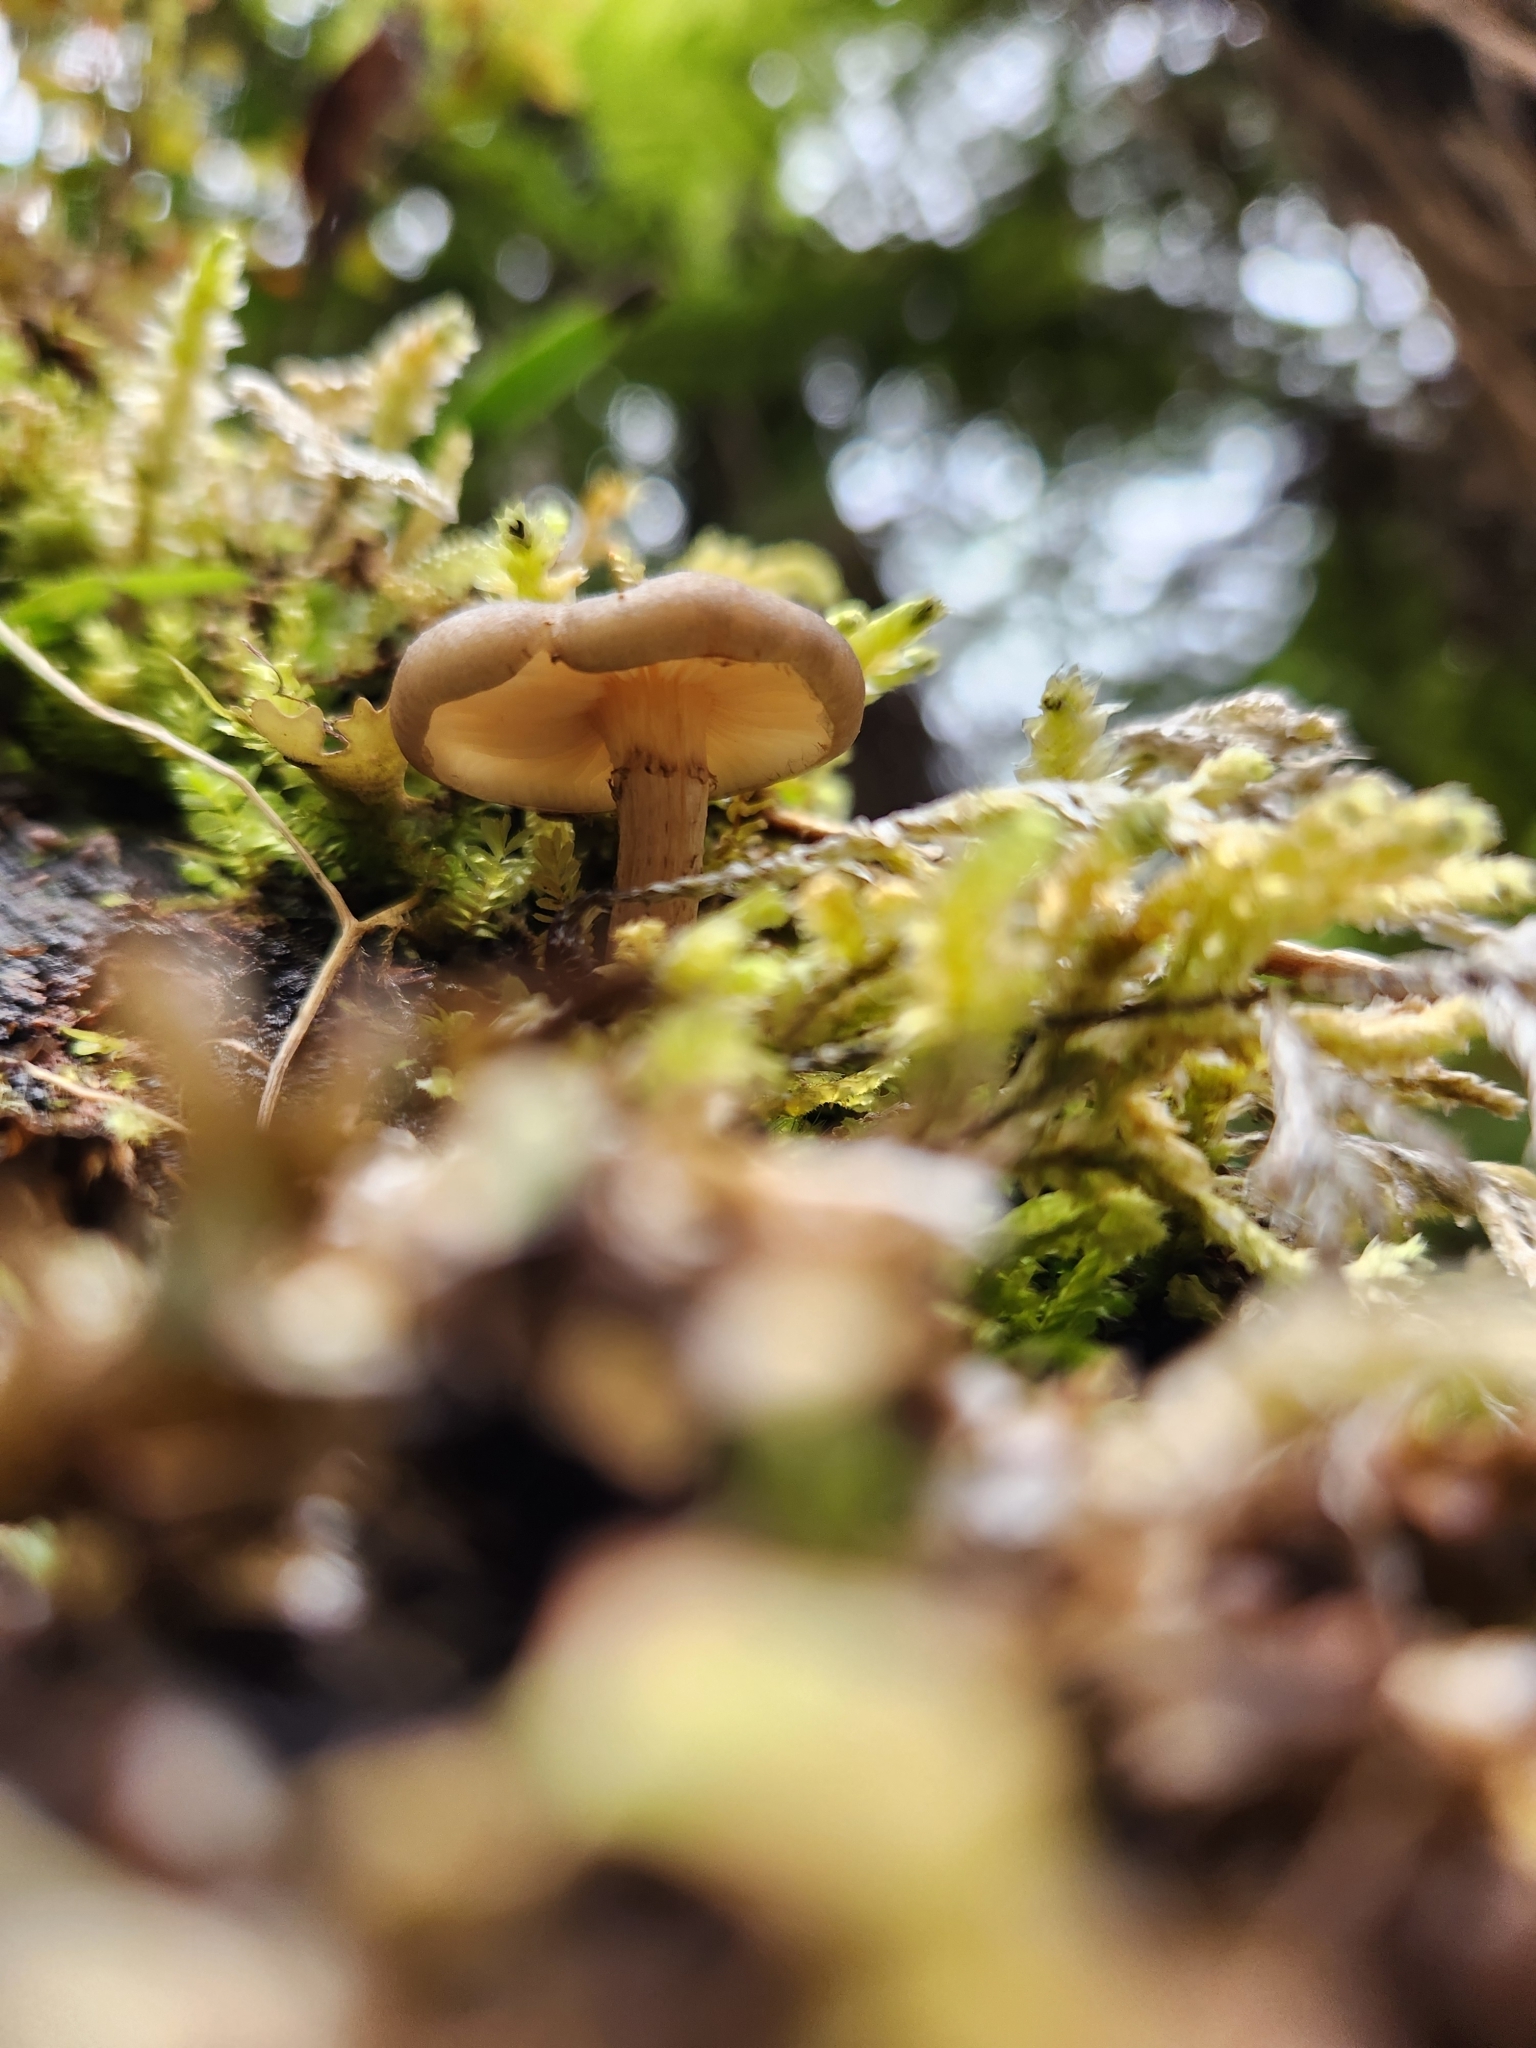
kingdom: Fungi
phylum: Basidiomycota
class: Agaricomycetes
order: Agaricales
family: Physalacriaceae
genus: Armillaria
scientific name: Armillaria novae-zelandiae
